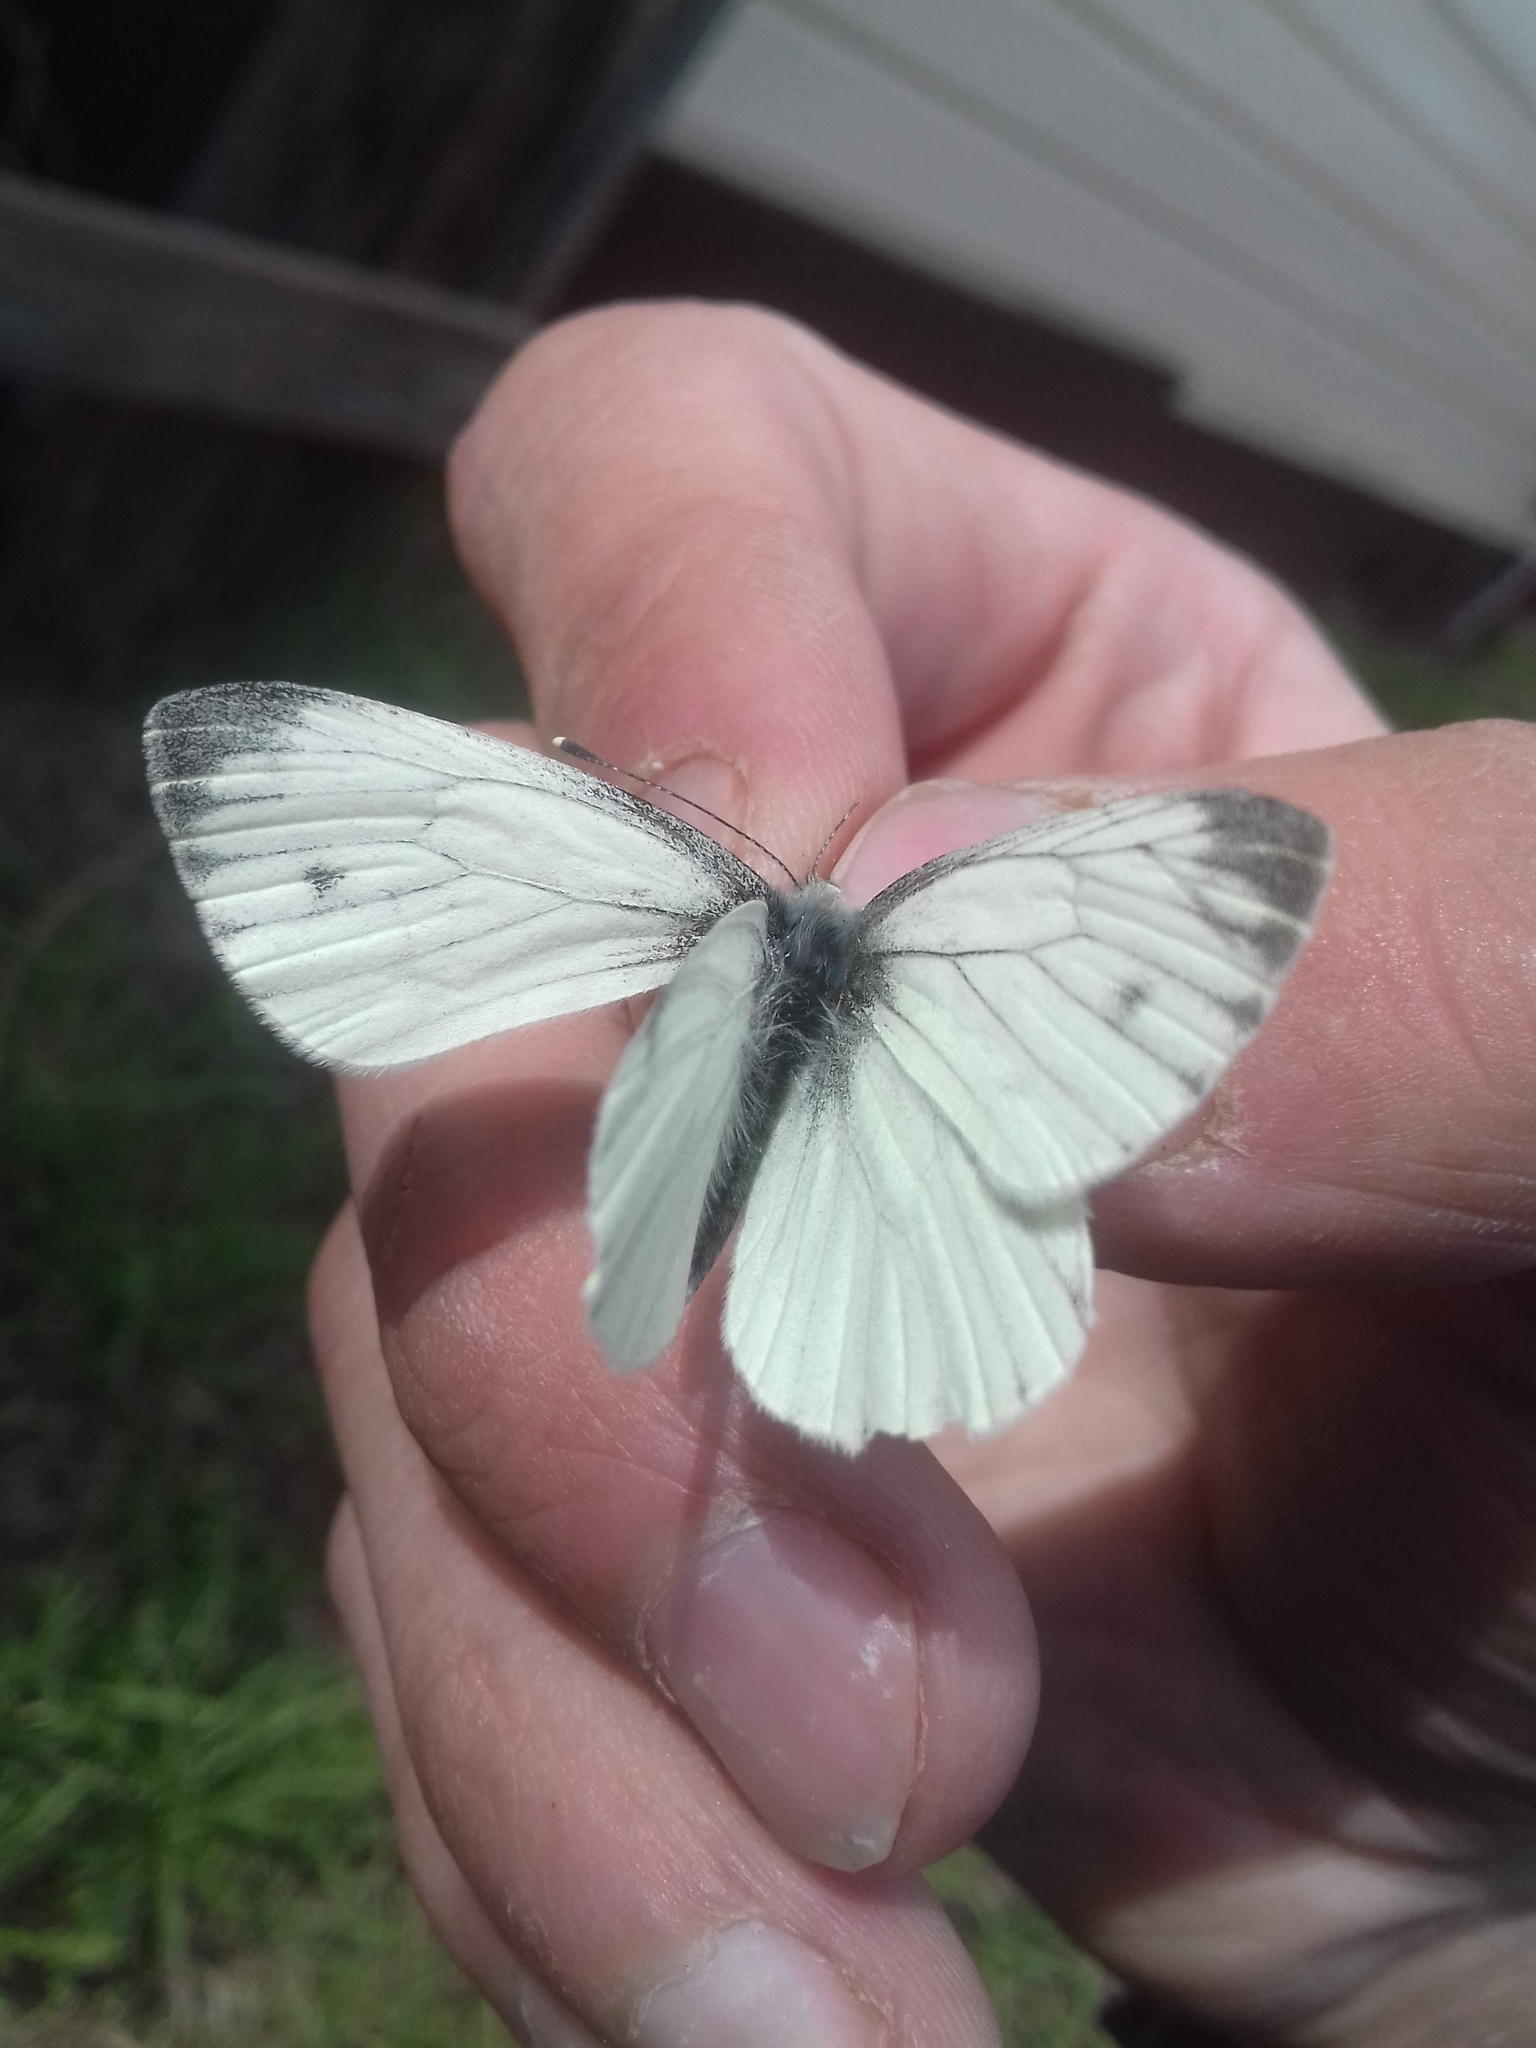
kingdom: Animalia
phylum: Arthropoda
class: Insecta
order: Lepidoptera
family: Pieridae
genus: Pieris
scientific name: Pieris napi
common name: Green-veined white
